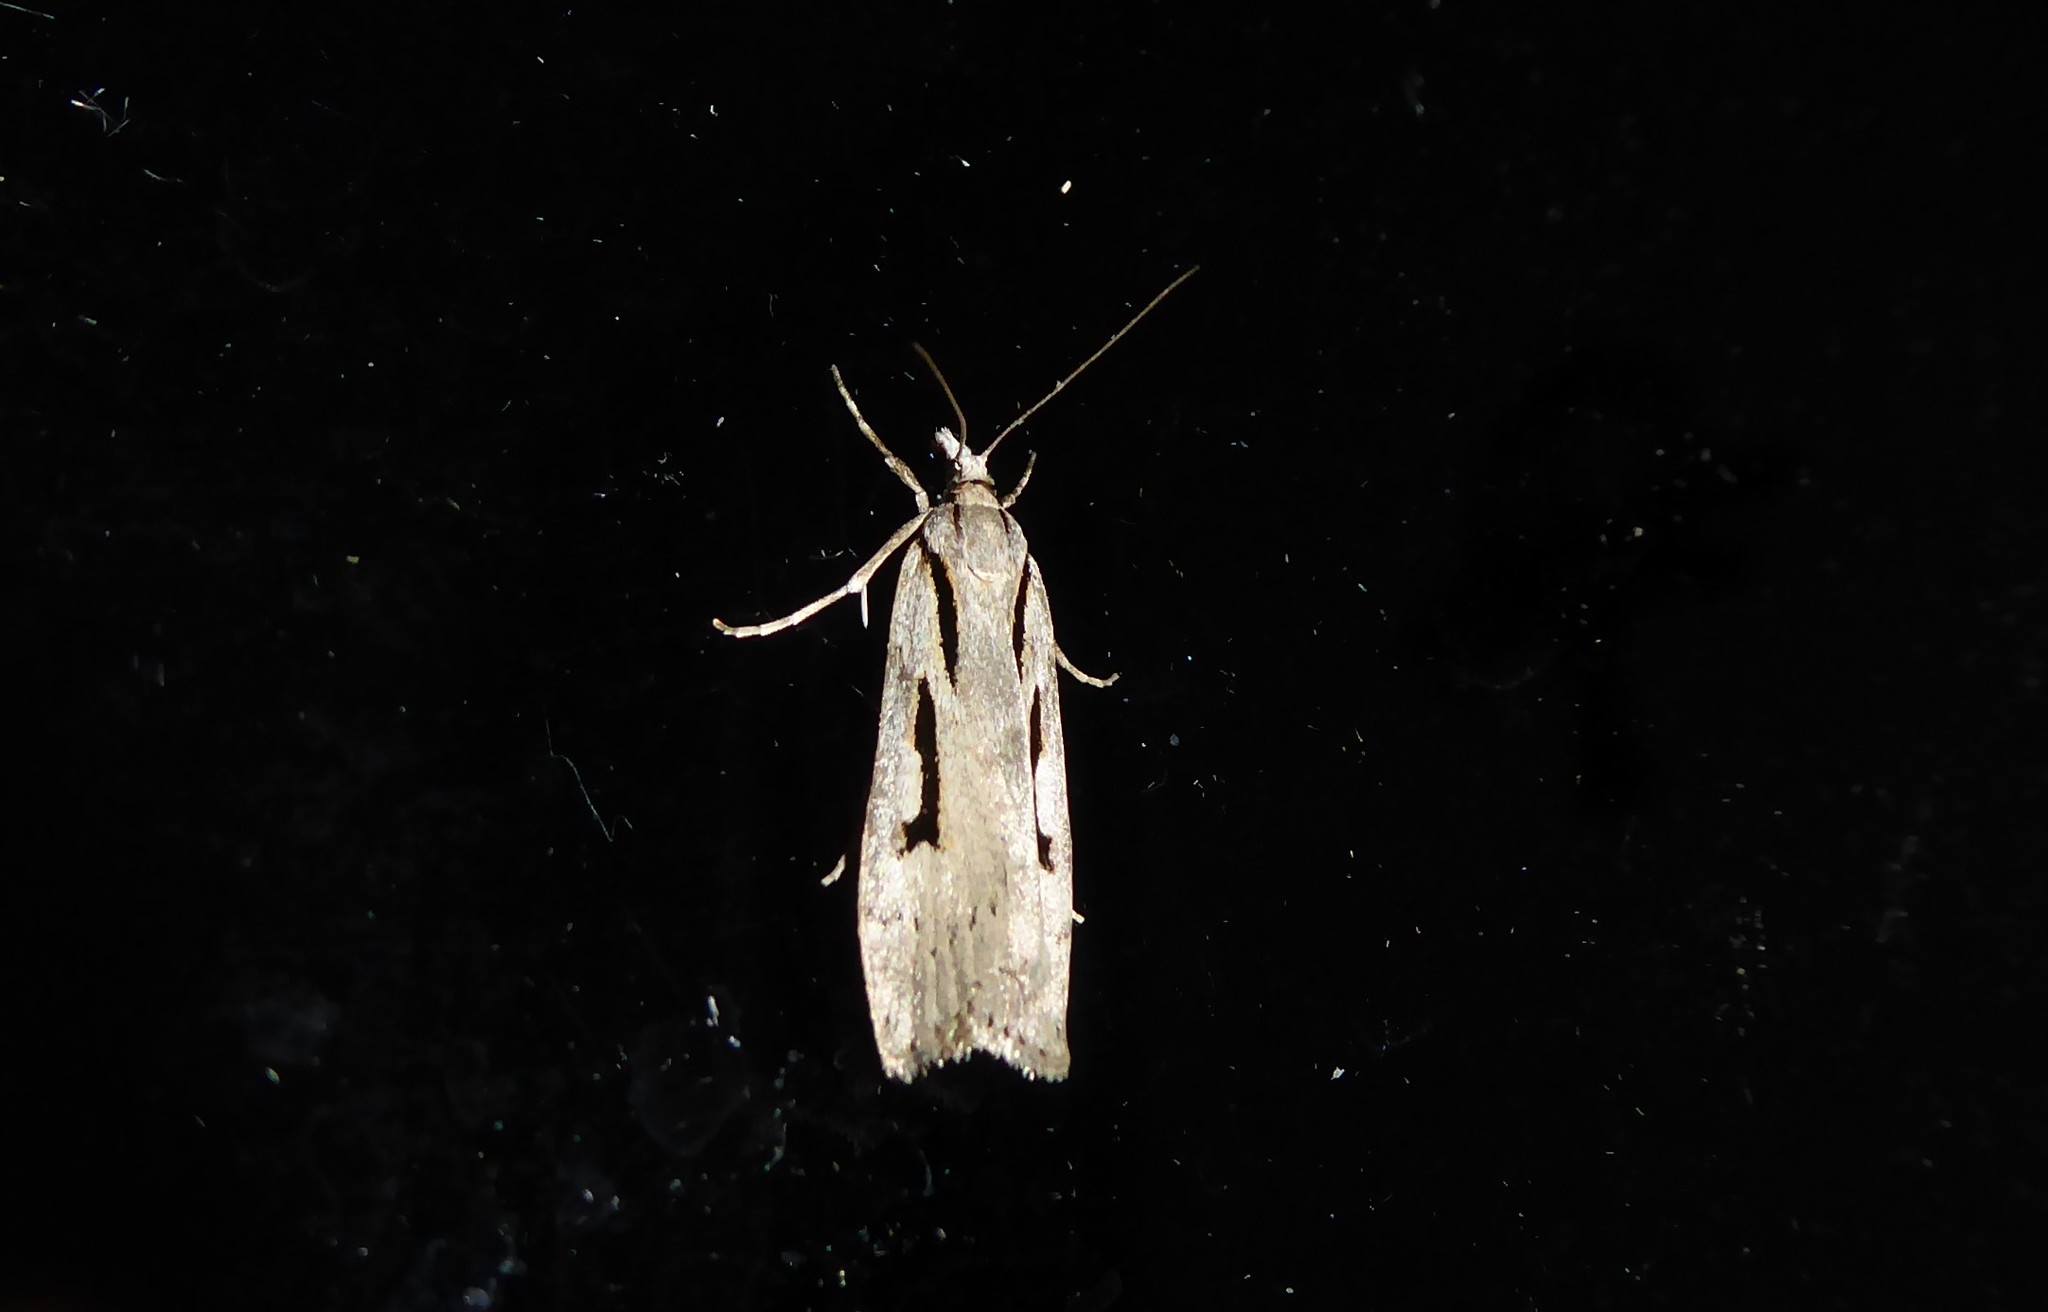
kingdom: Animalia
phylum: Arthropoda
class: Insecta
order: Lepidoptera
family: Crambidae
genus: Scoparia
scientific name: Scoparia rotuellus
